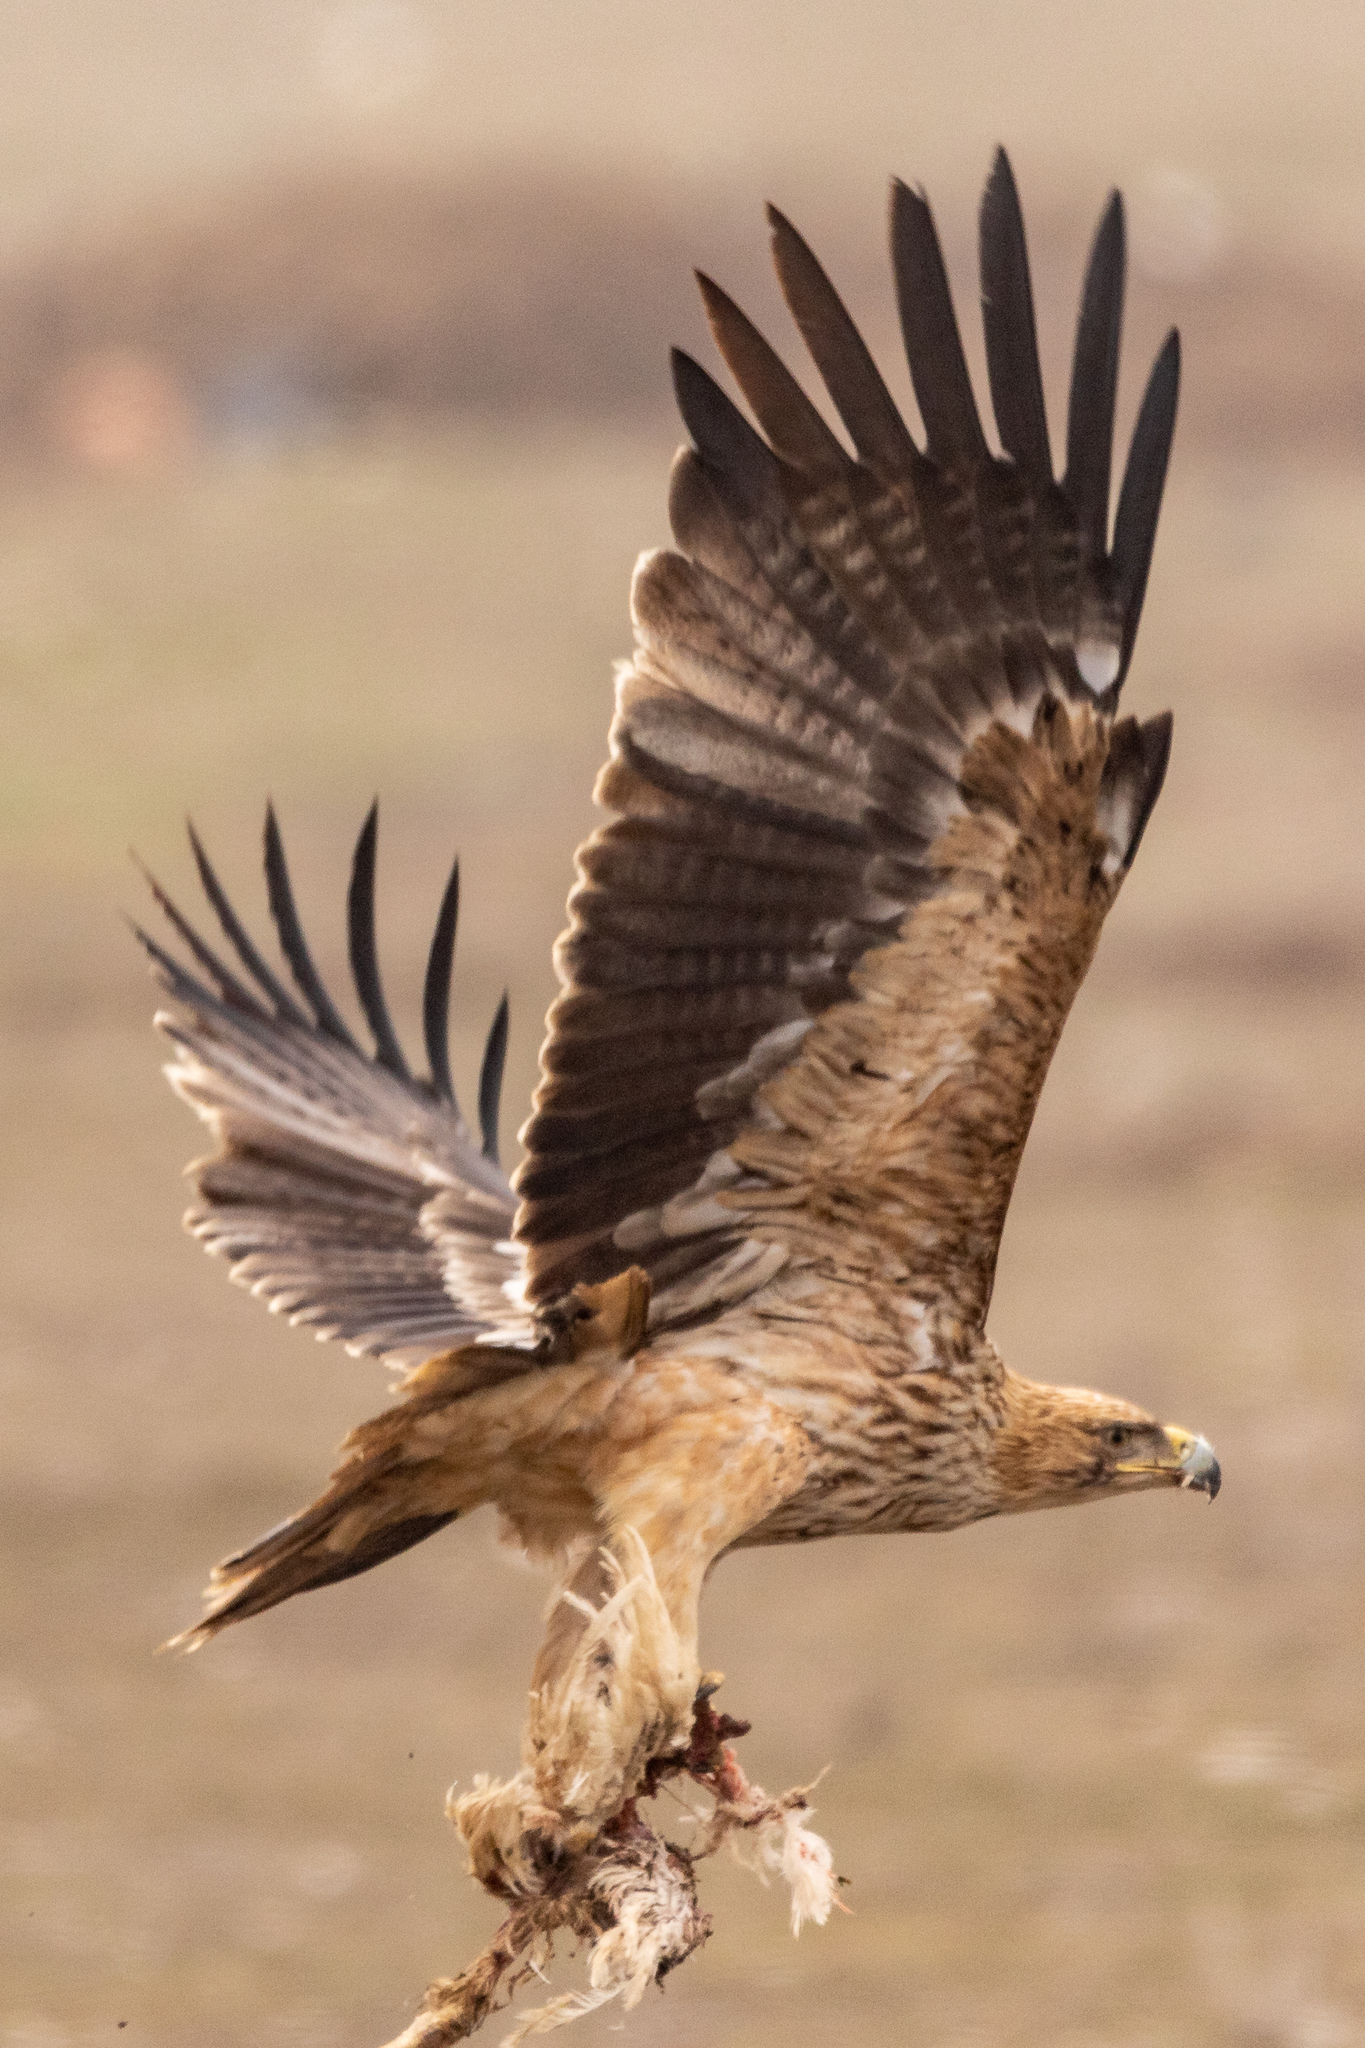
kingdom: Animalia
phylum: Chordata
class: Aves
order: Accipitriformes
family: Accipitridae
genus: Aquila
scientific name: Aquila heliaca
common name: Eastern imperial eagle
